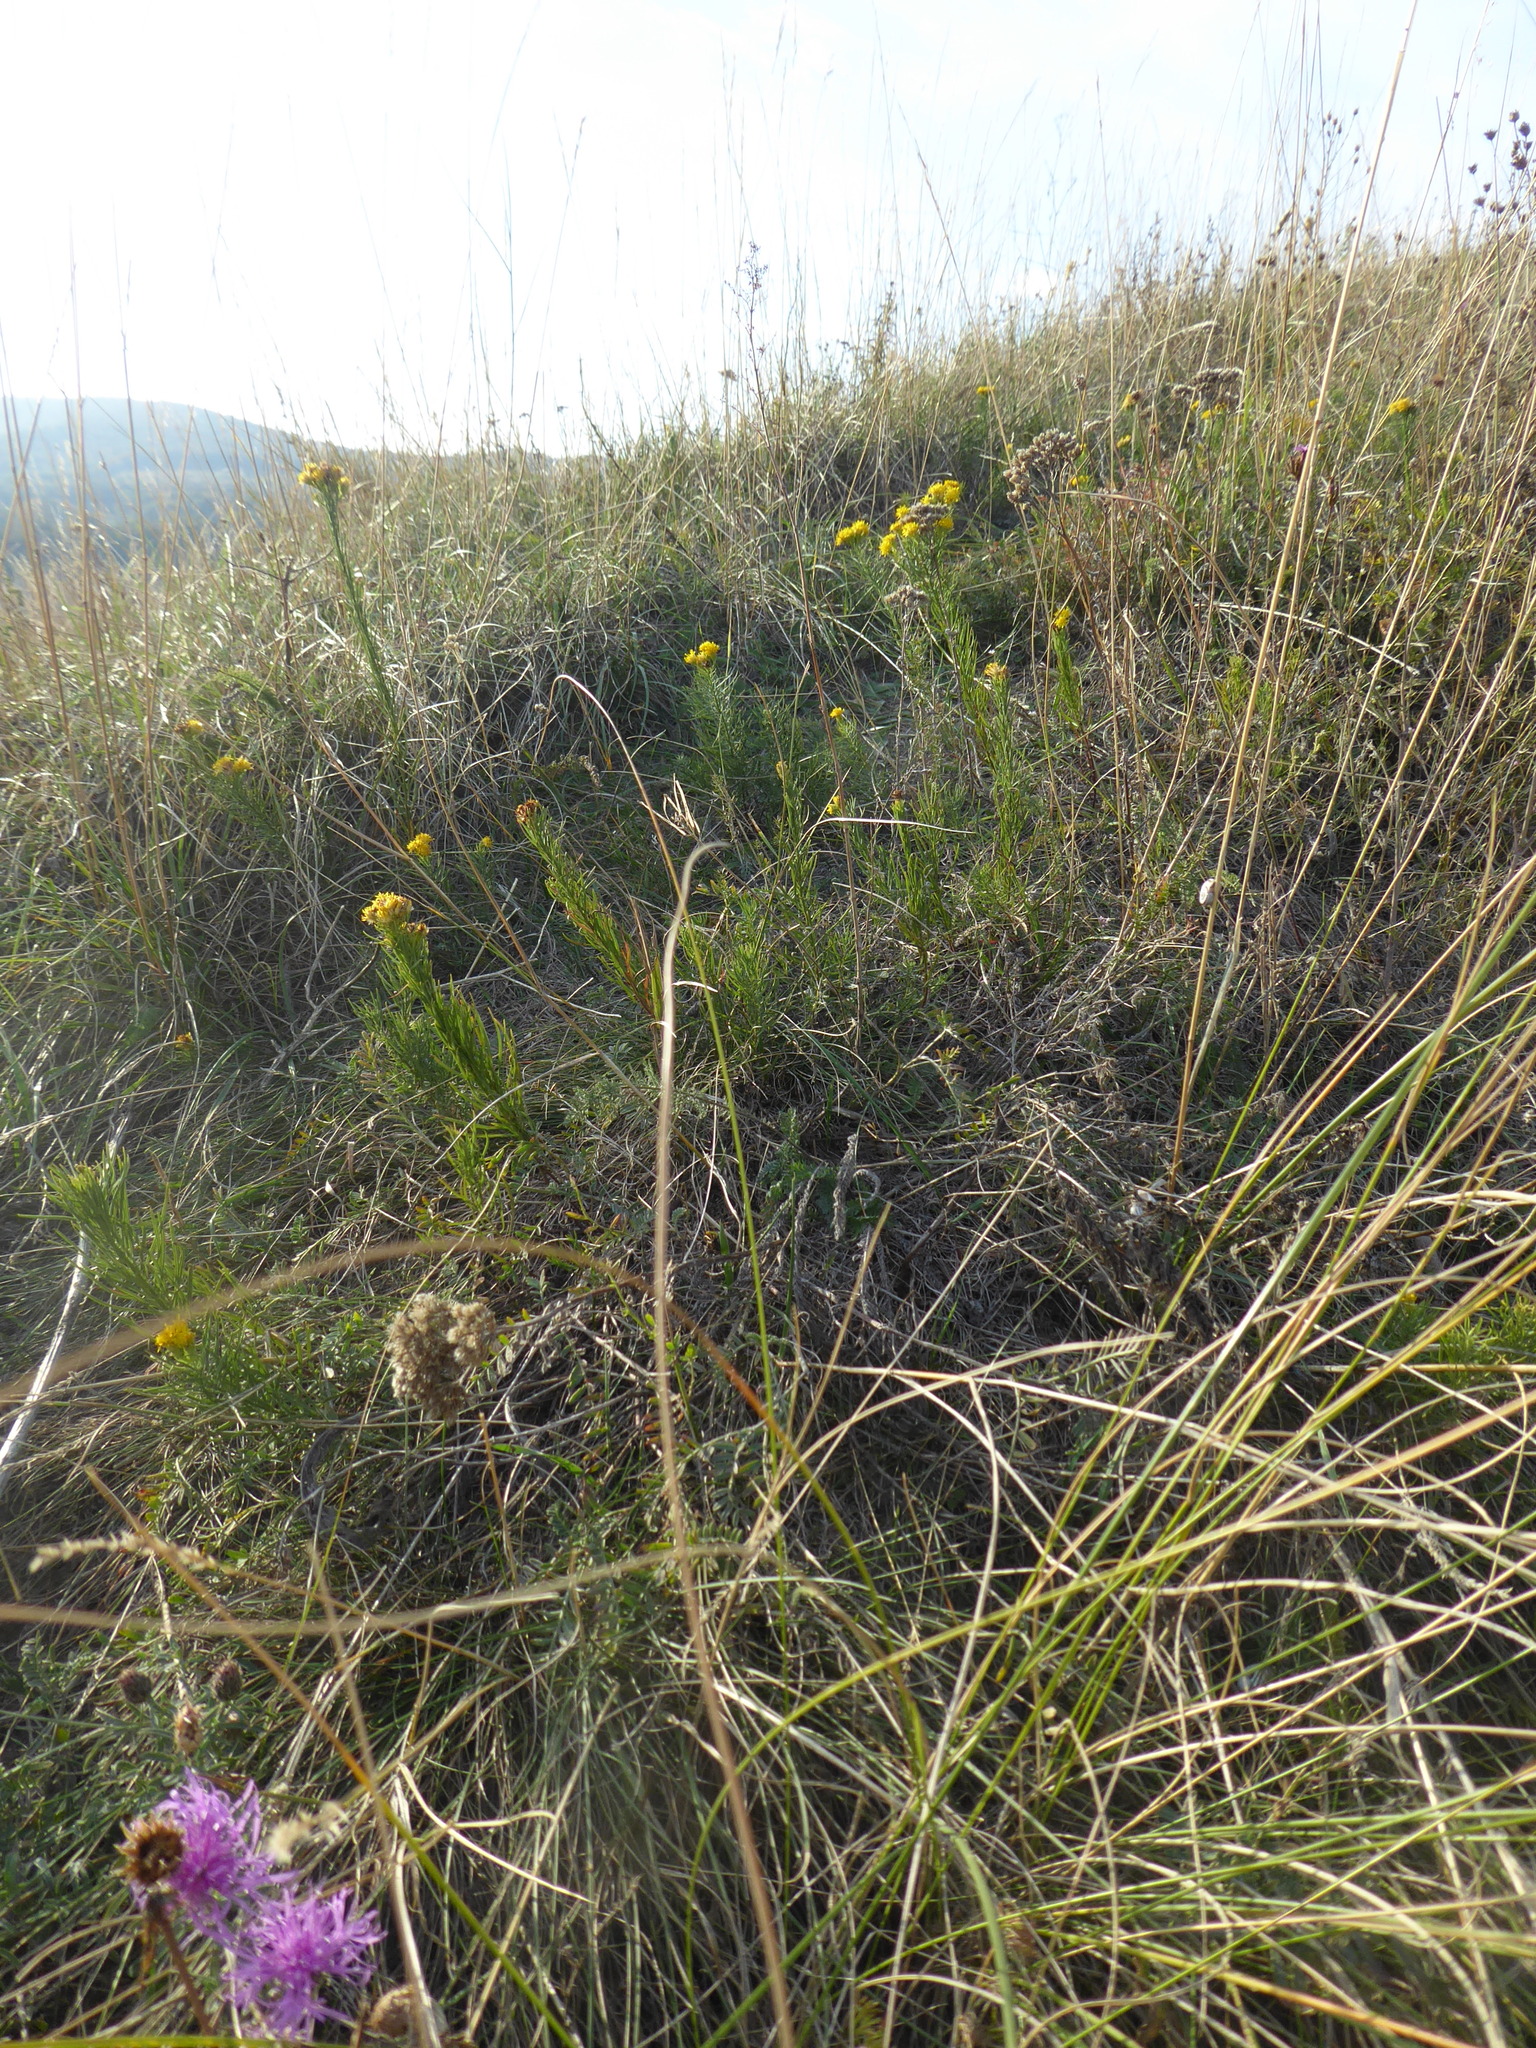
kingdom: Plantae
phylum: Tracheophyta
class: Magnoliopsida
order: Asterales
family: Asteraceae
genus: Galatella
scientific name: Galatella linosyris
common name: Goldilocks aster
